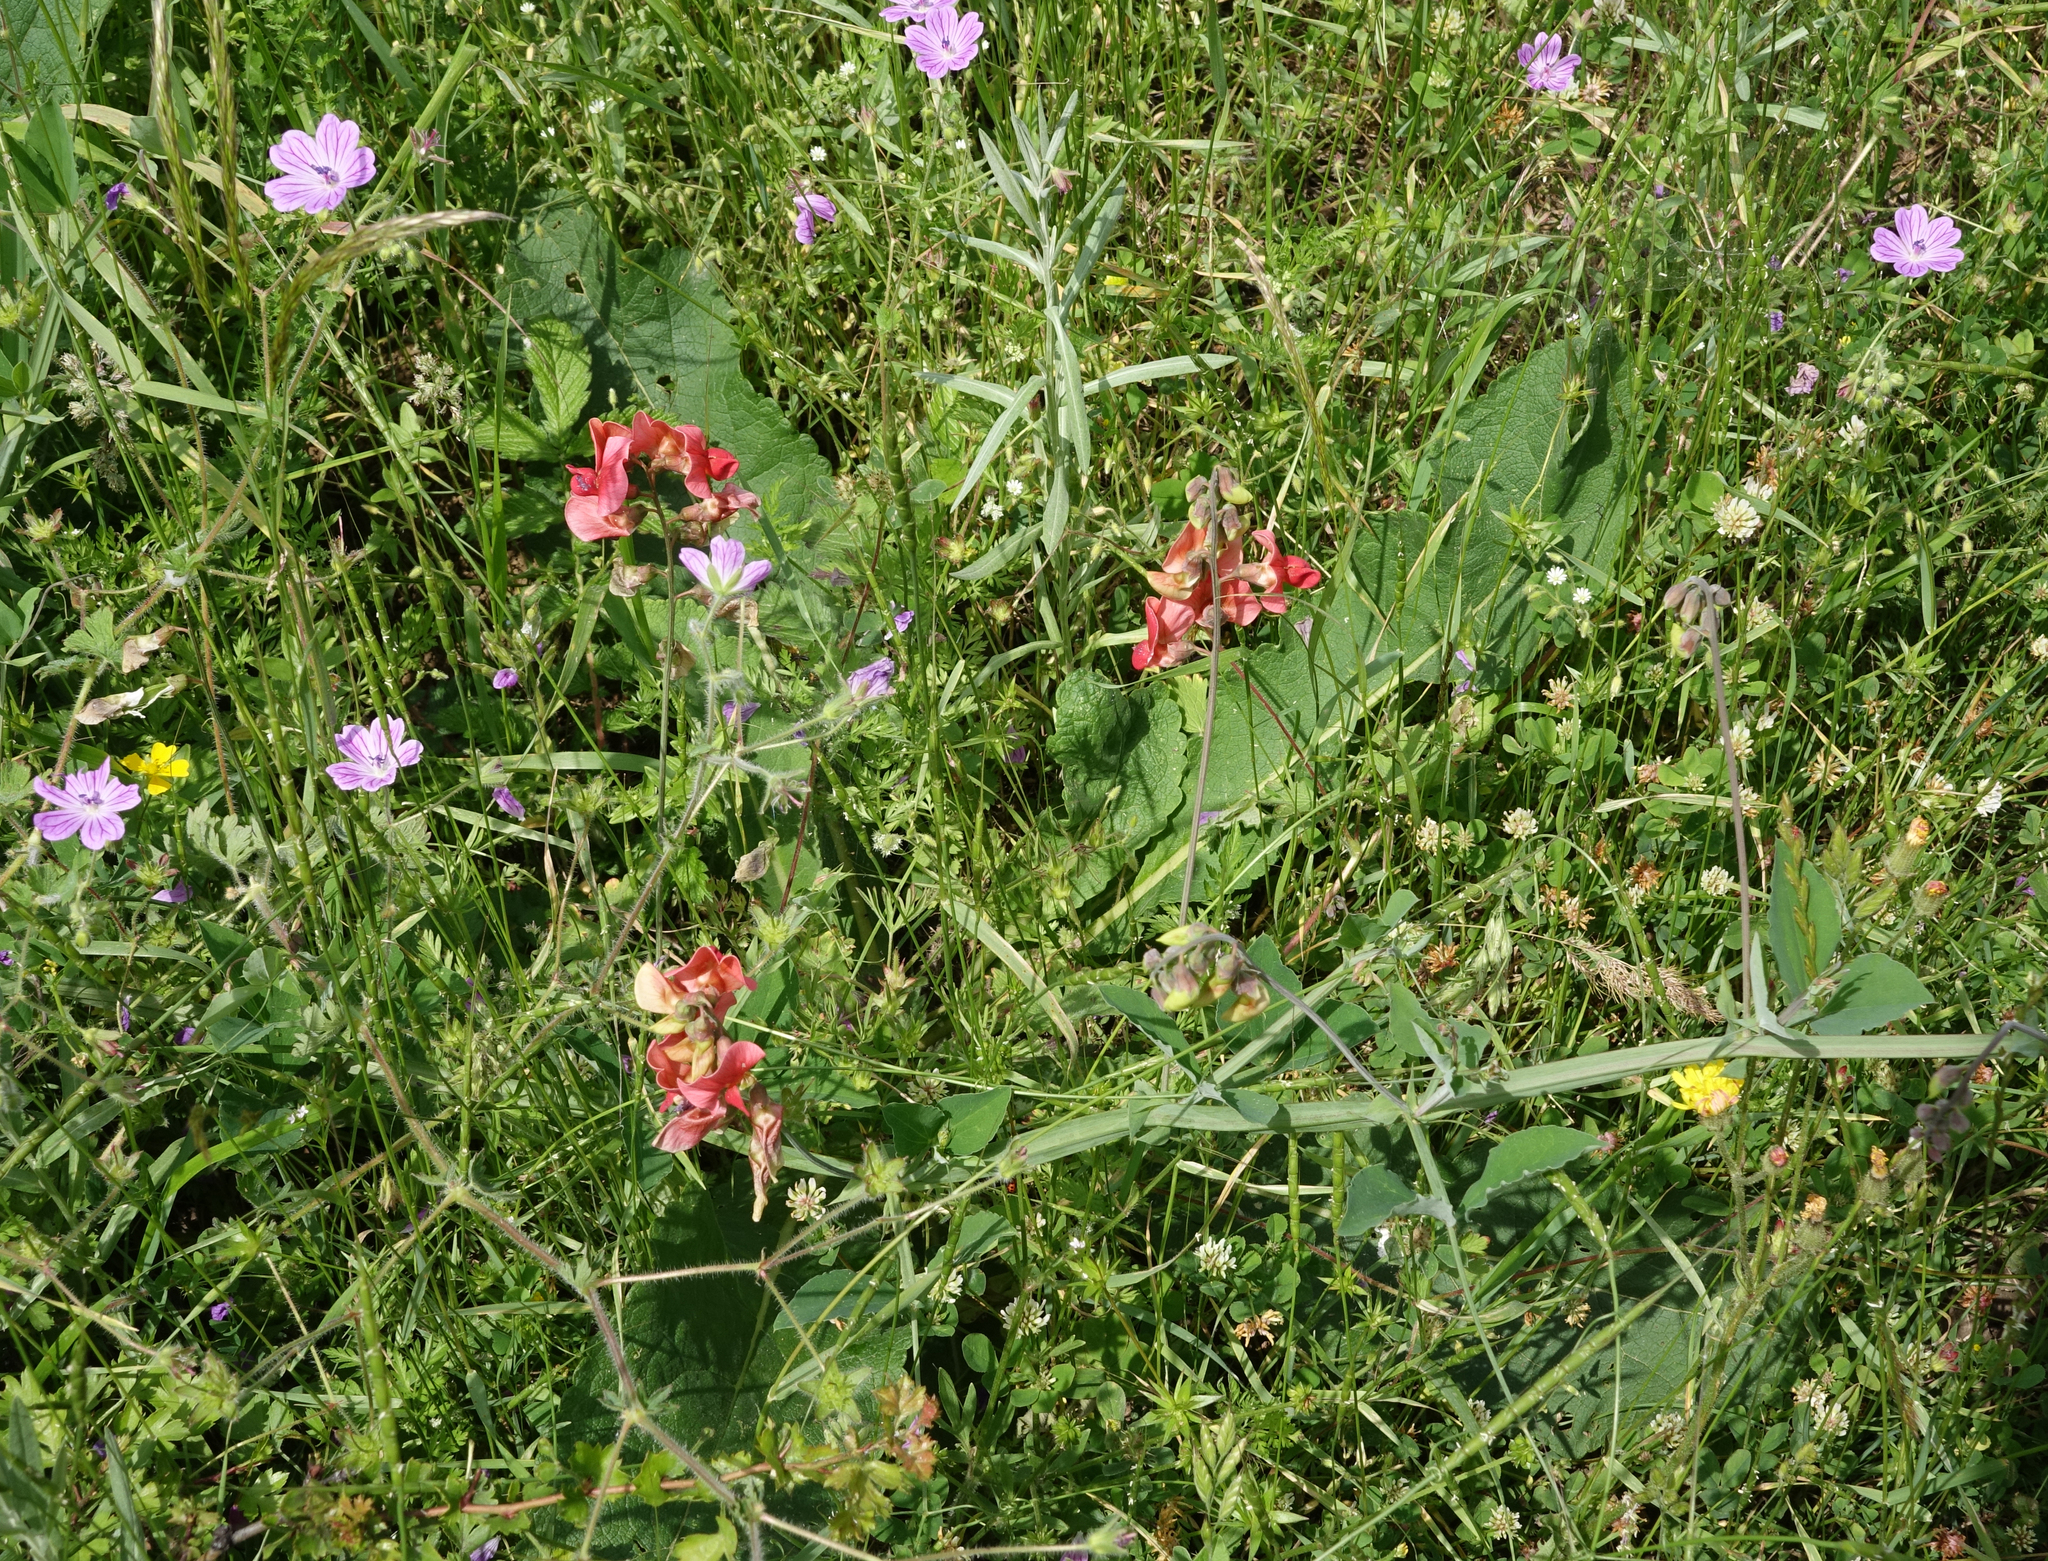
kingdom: Plantae
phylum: Tracheophyta
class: Magnoliopsida
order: Fabales
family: Fabaceae
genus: Lathyrus
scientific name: Lathyrus miniatus
